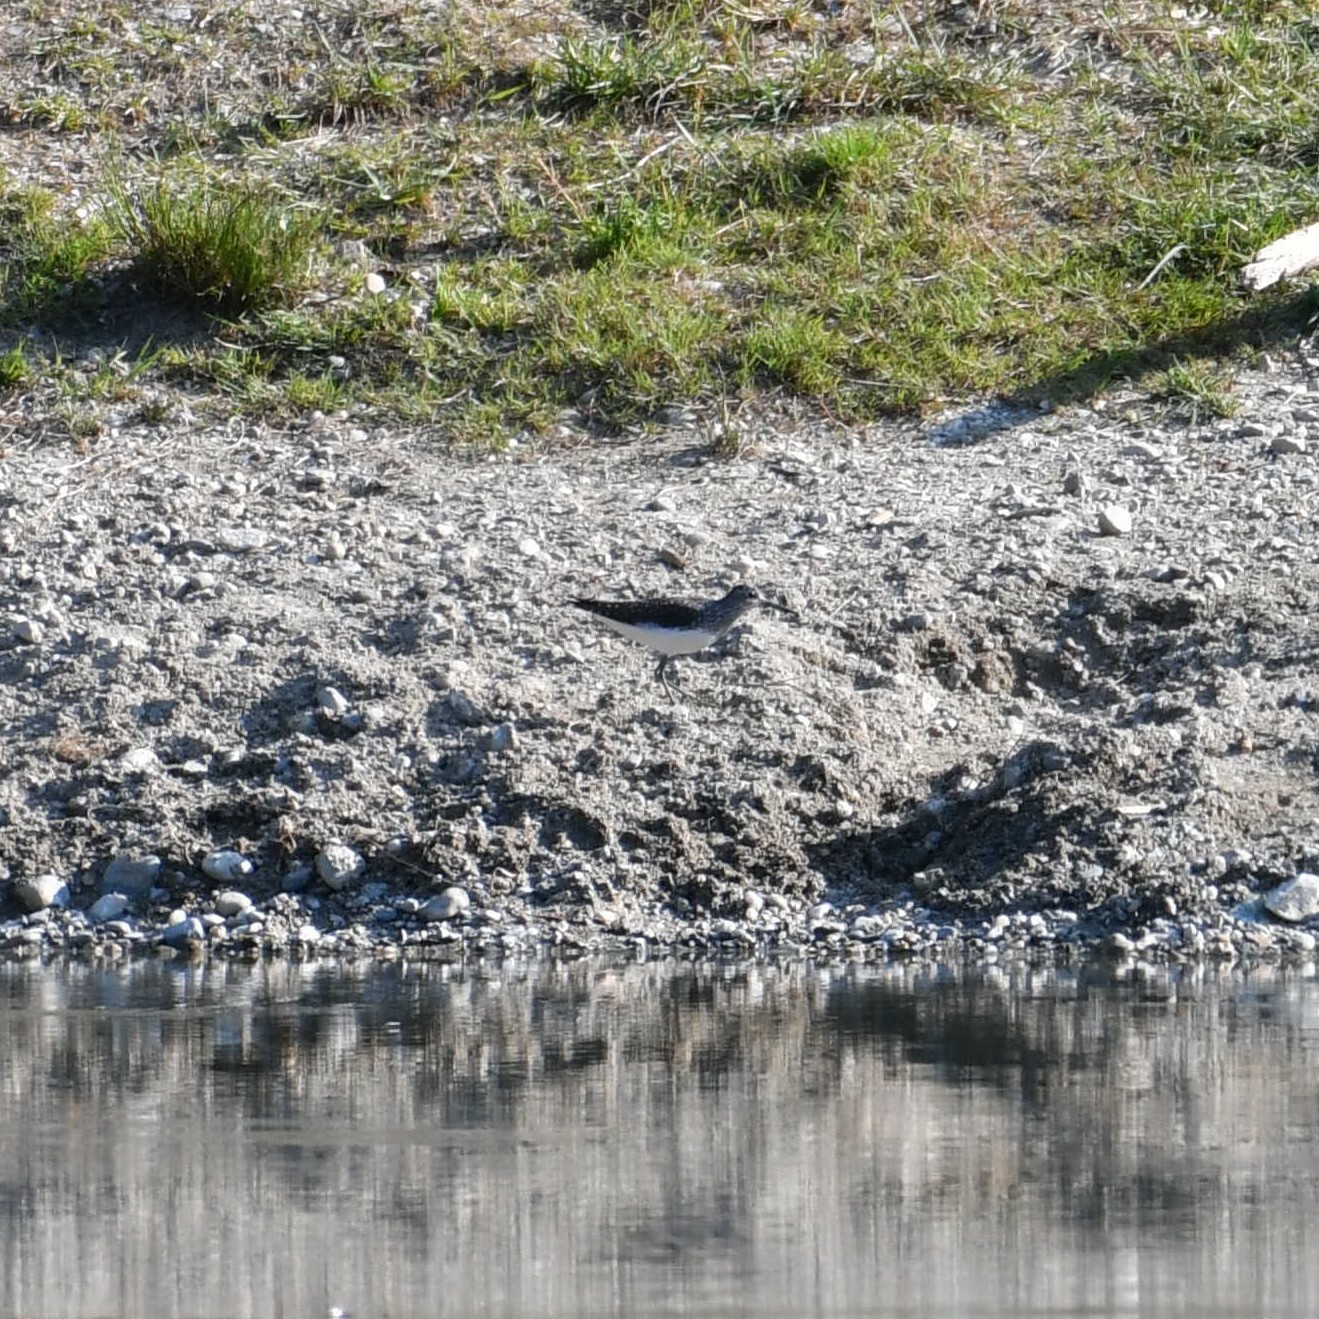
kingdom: Animalia
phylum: Chordata
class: Aves
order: Charadriiformes
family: Scolopacidae
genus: Tringa
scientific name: Tringa ochropus
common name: Green sandpiper
